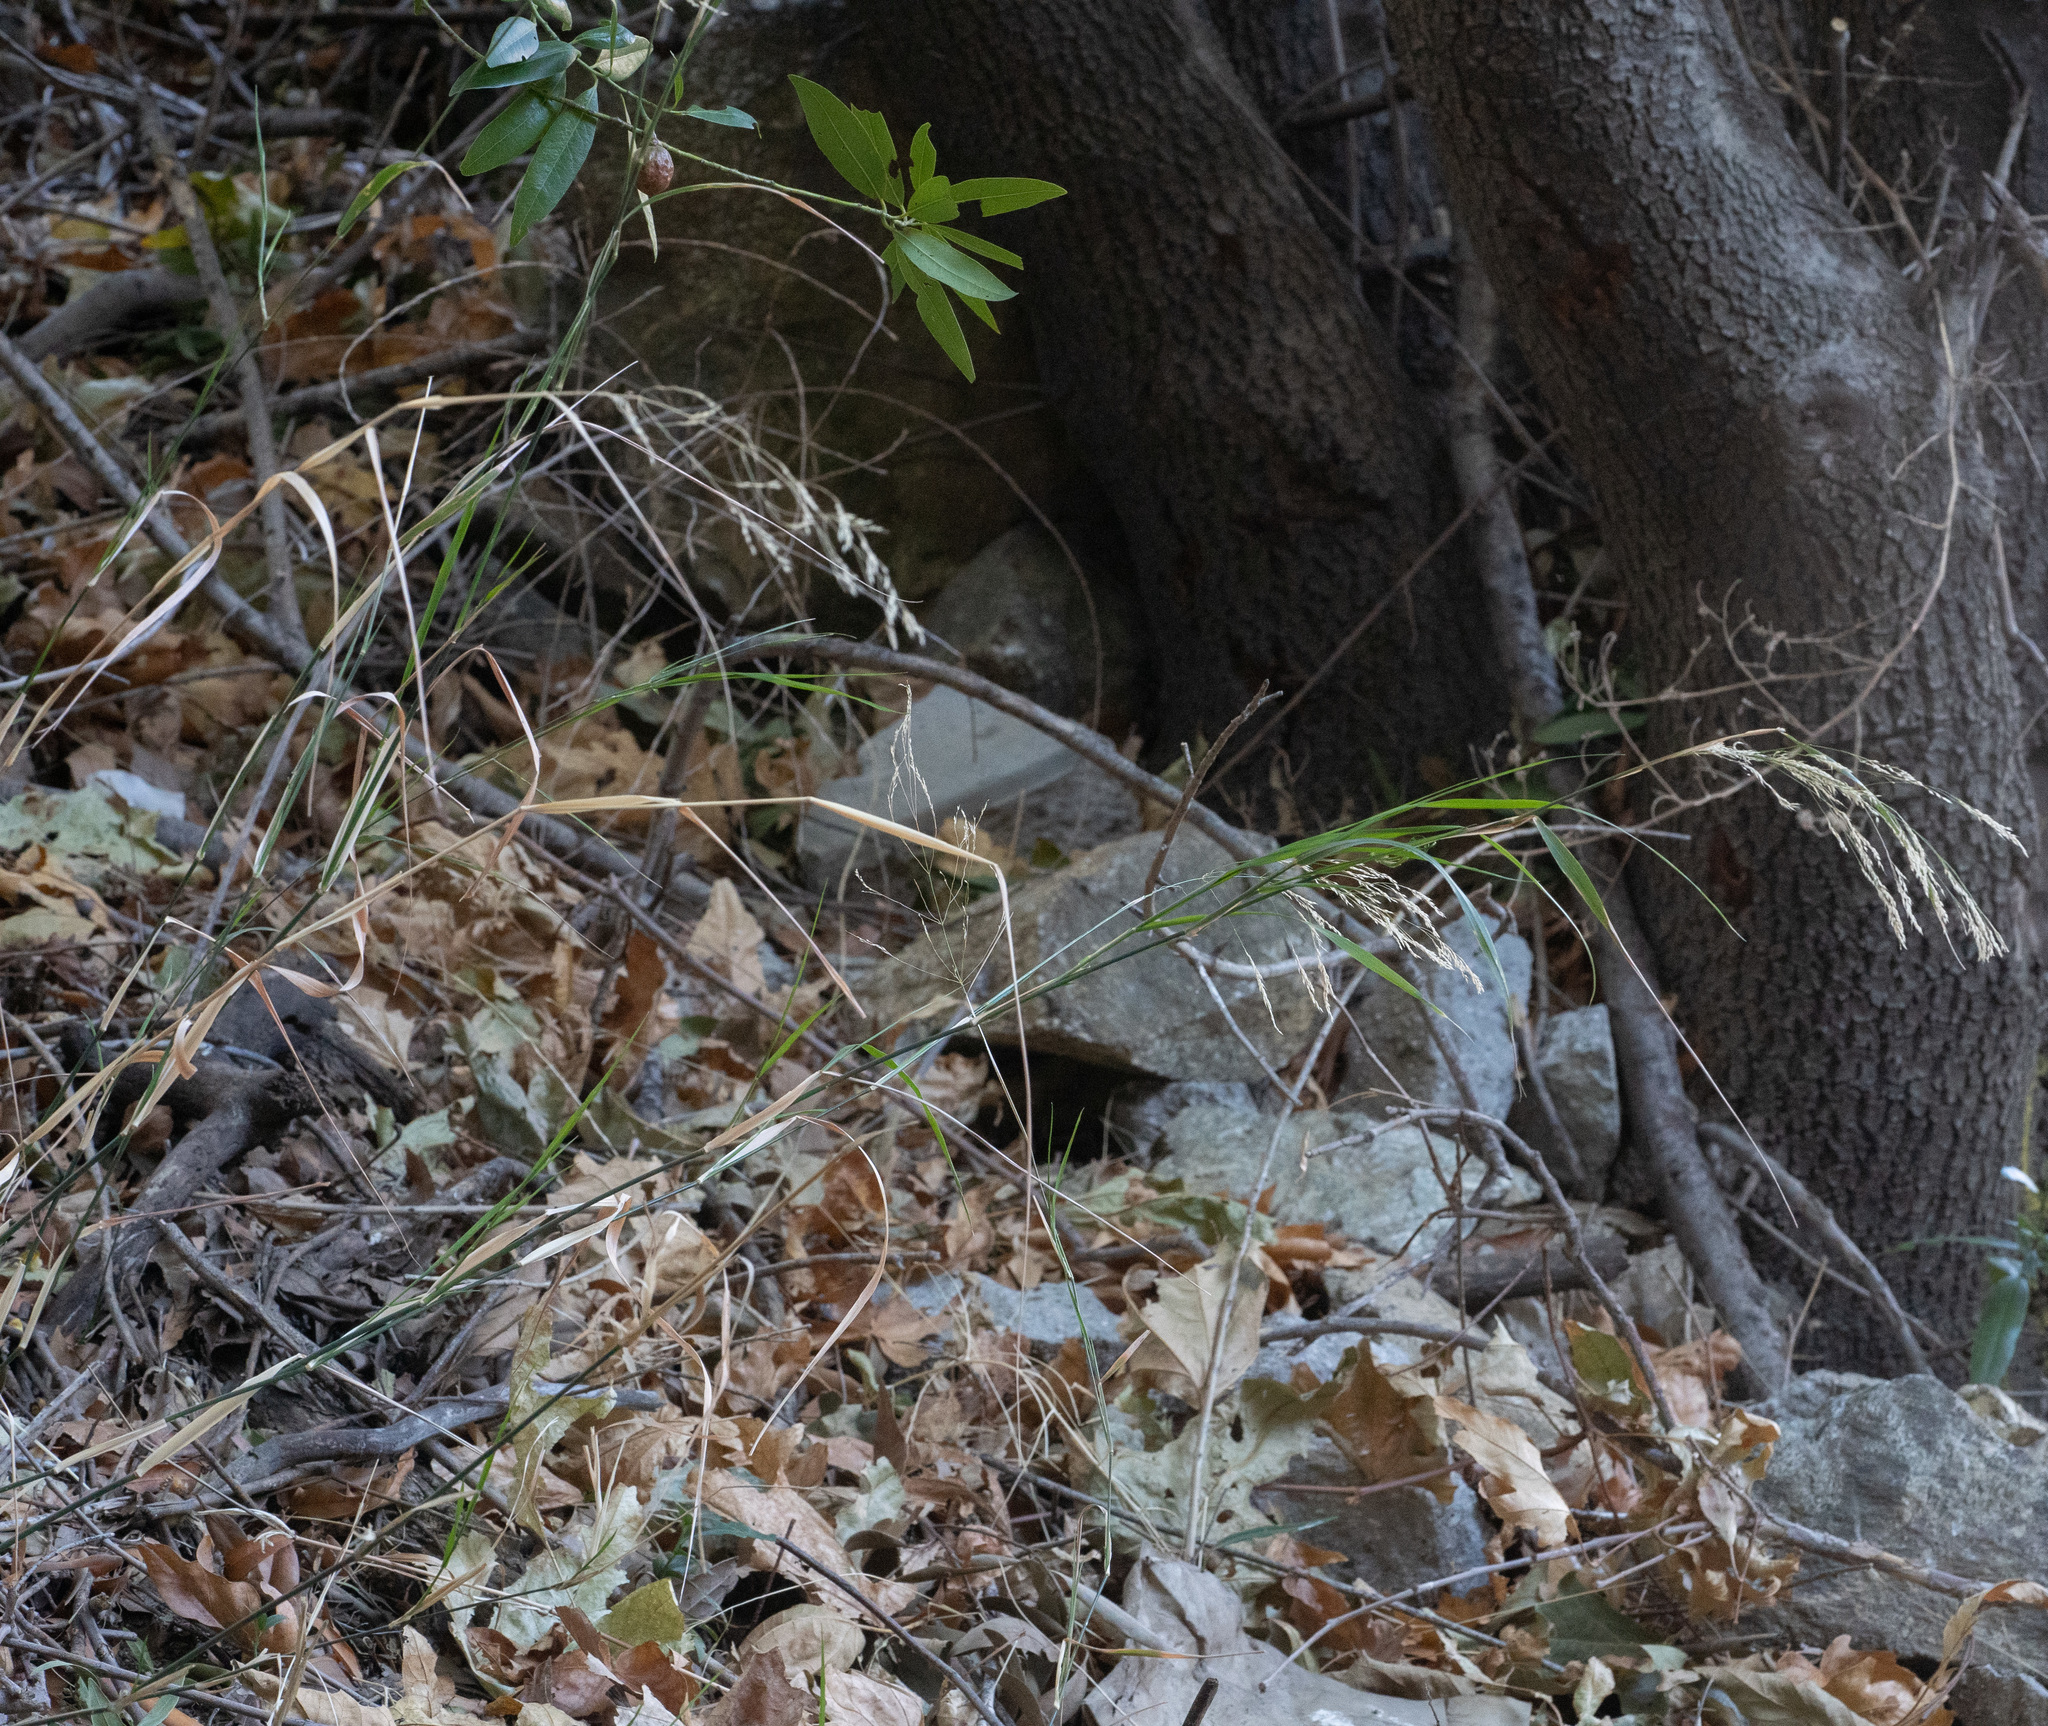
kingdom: Plantae
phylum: Tracheophyta
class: Liliopsida
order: Poales
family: Poaceae
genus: Oloptum
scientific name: Oloptum miliaceum
